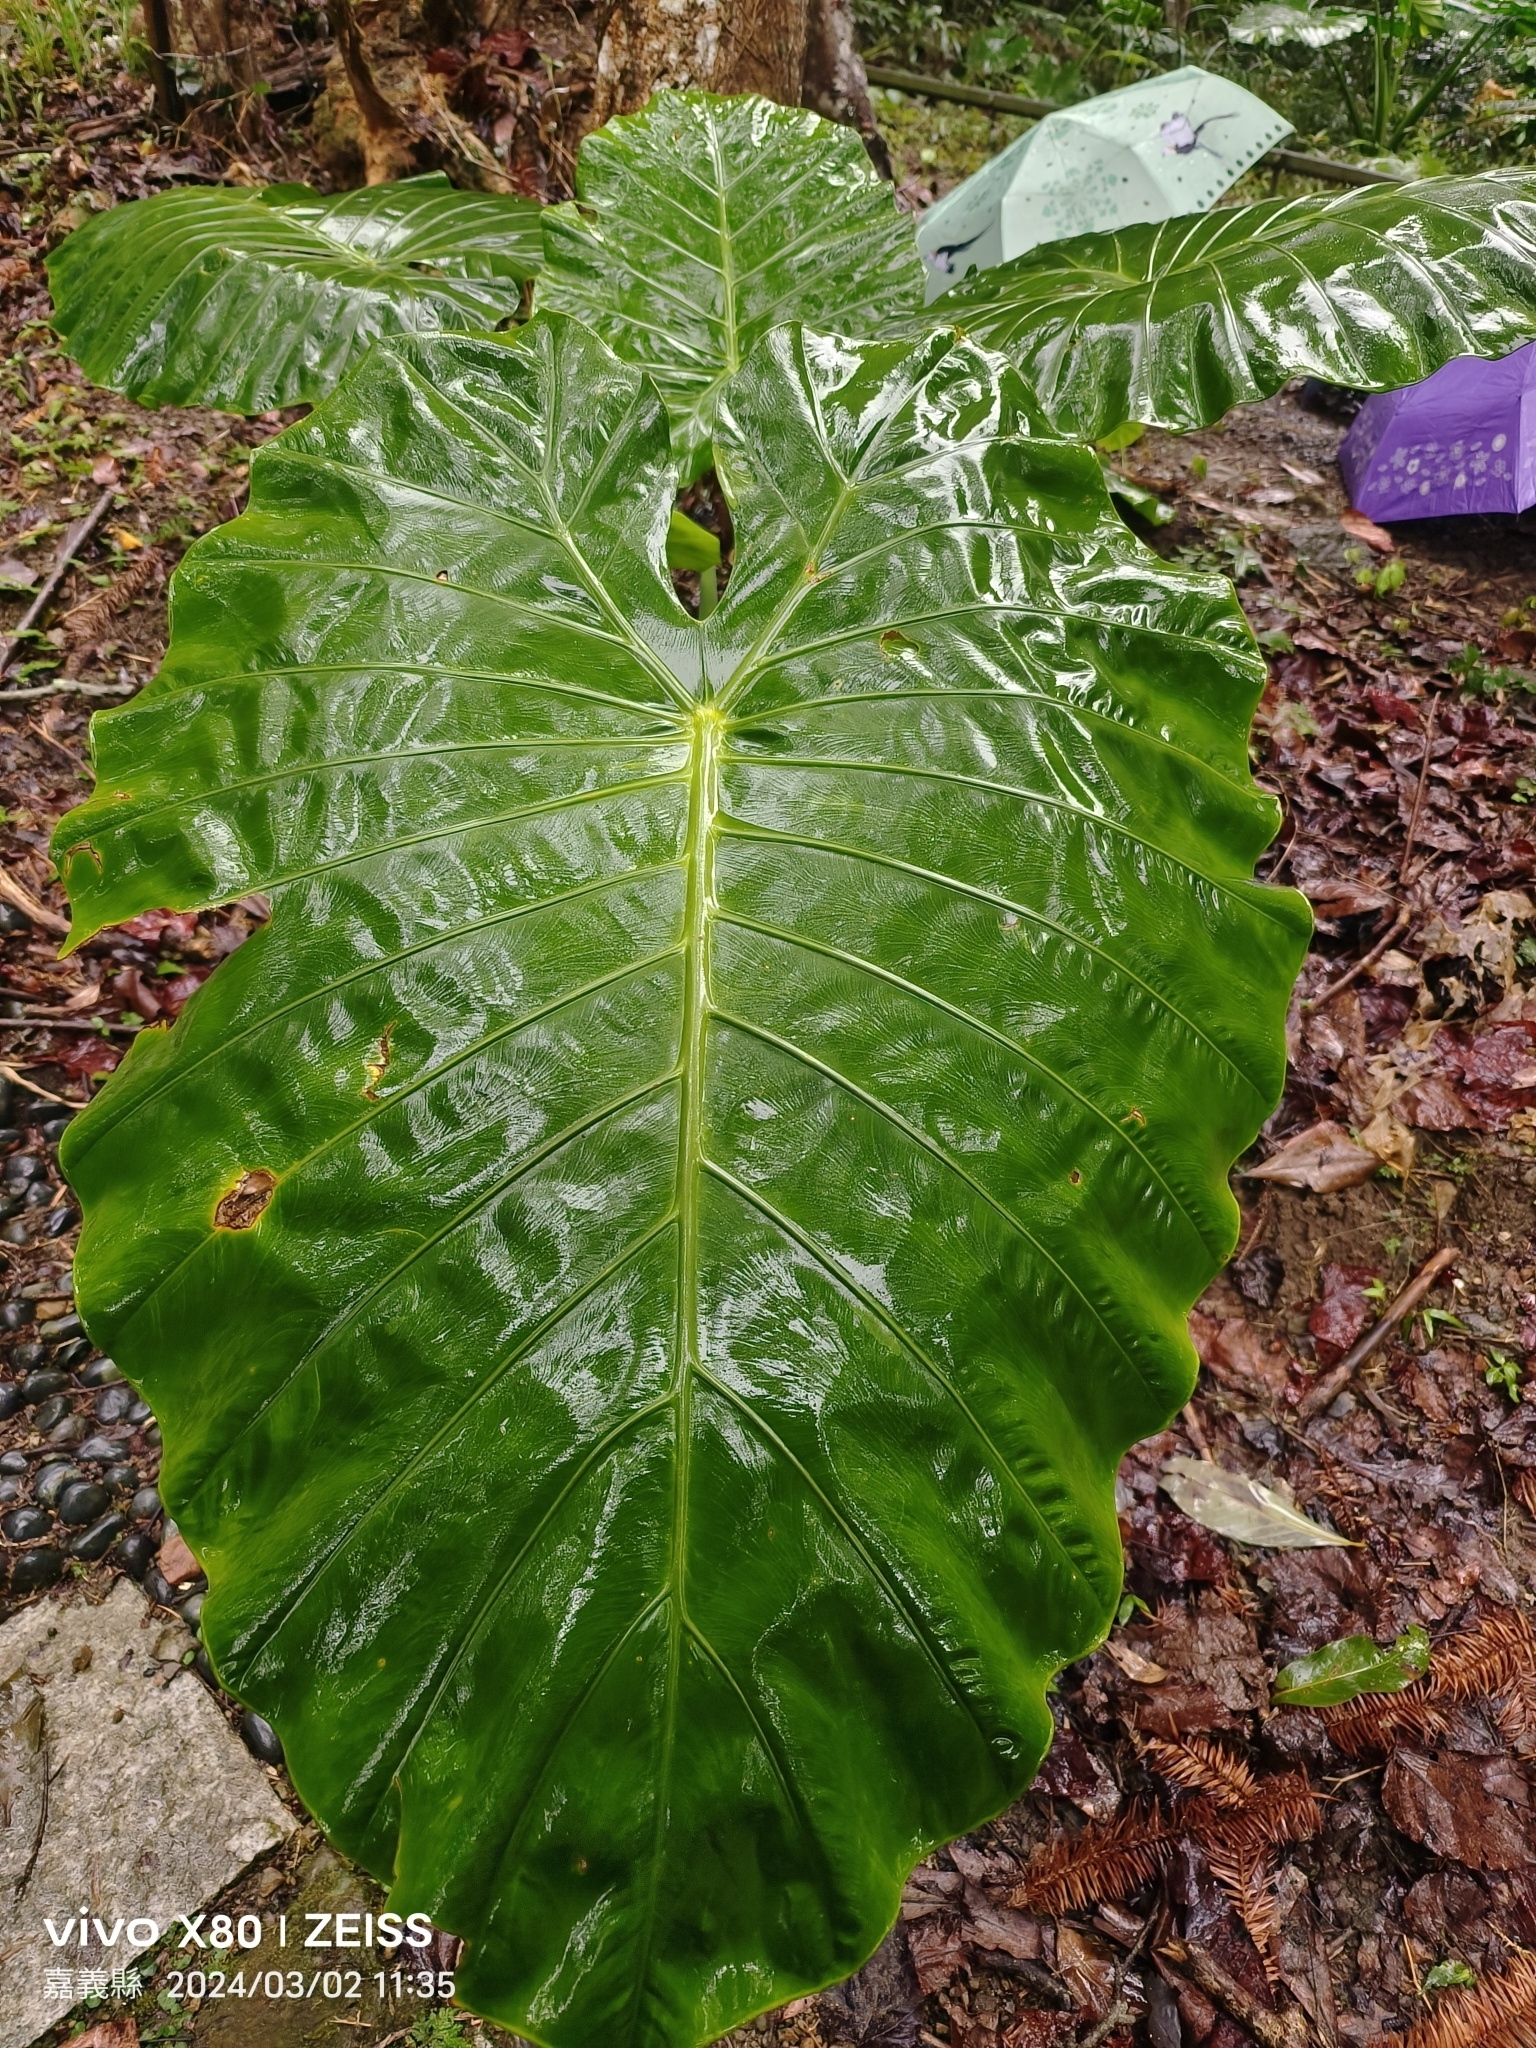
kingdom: Plantae
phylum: Tracheophyta
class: Liliopsida
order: Alismatales
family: Araceae
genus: Alocasia
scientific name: Alocasia odora
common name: Asian taro
